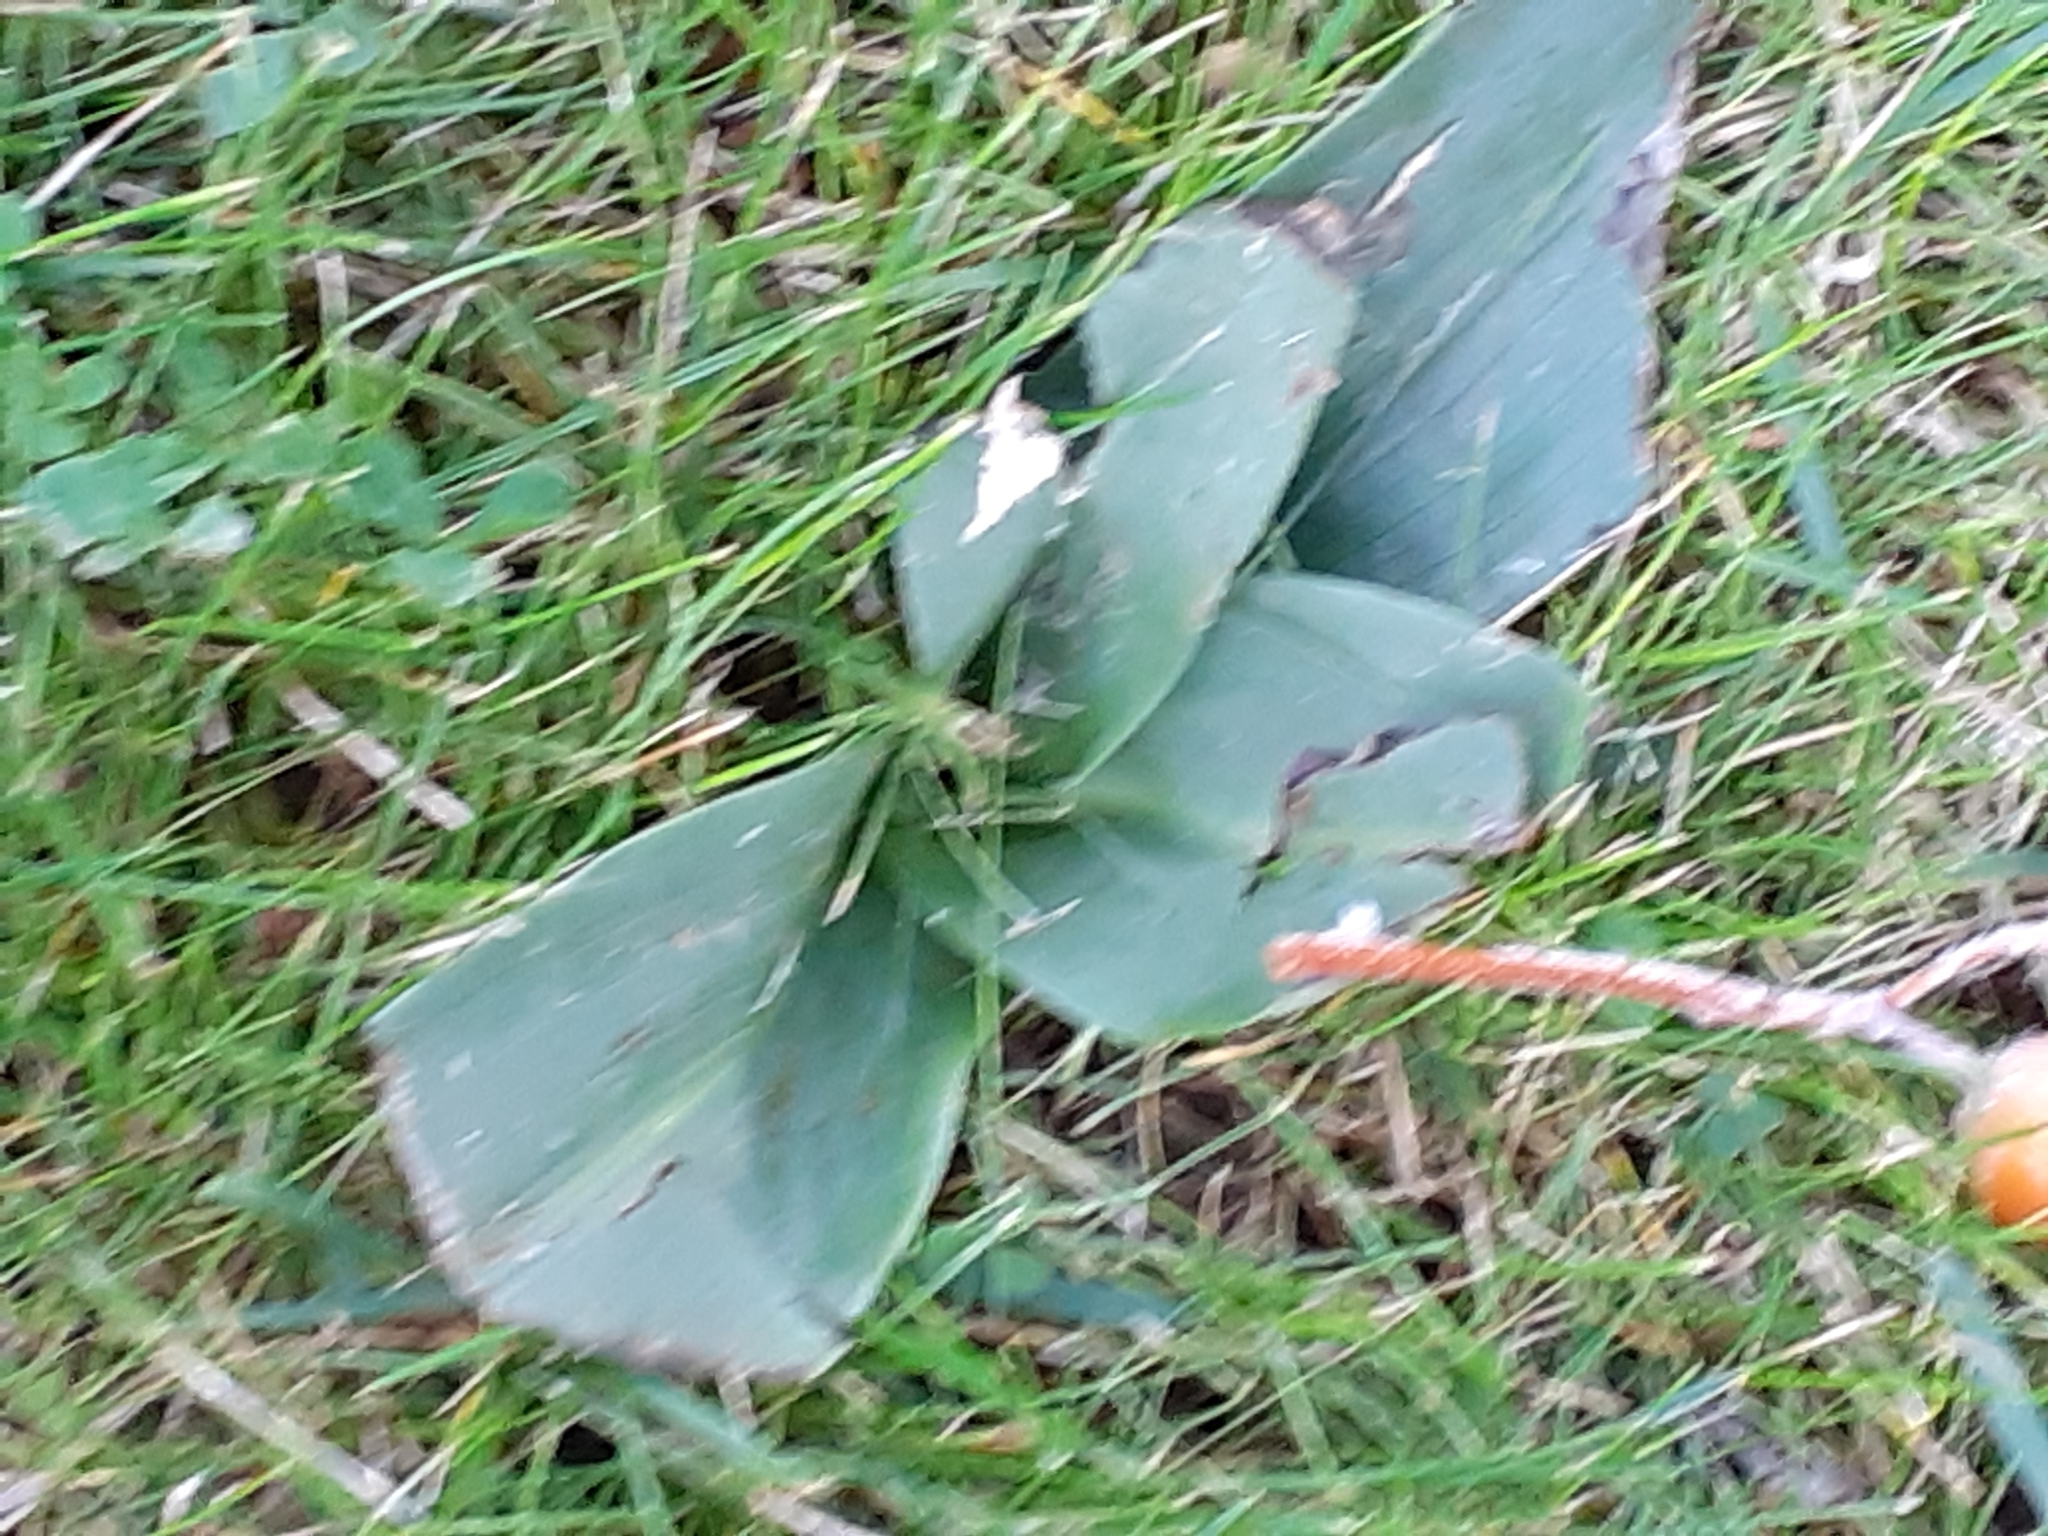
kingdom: Plantae
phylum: Tracheophyta
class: Liliopsida
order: Asparagales
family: Orchidaceae
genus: Ophrys
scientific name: Ophrys apifera
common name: Bee orchid
